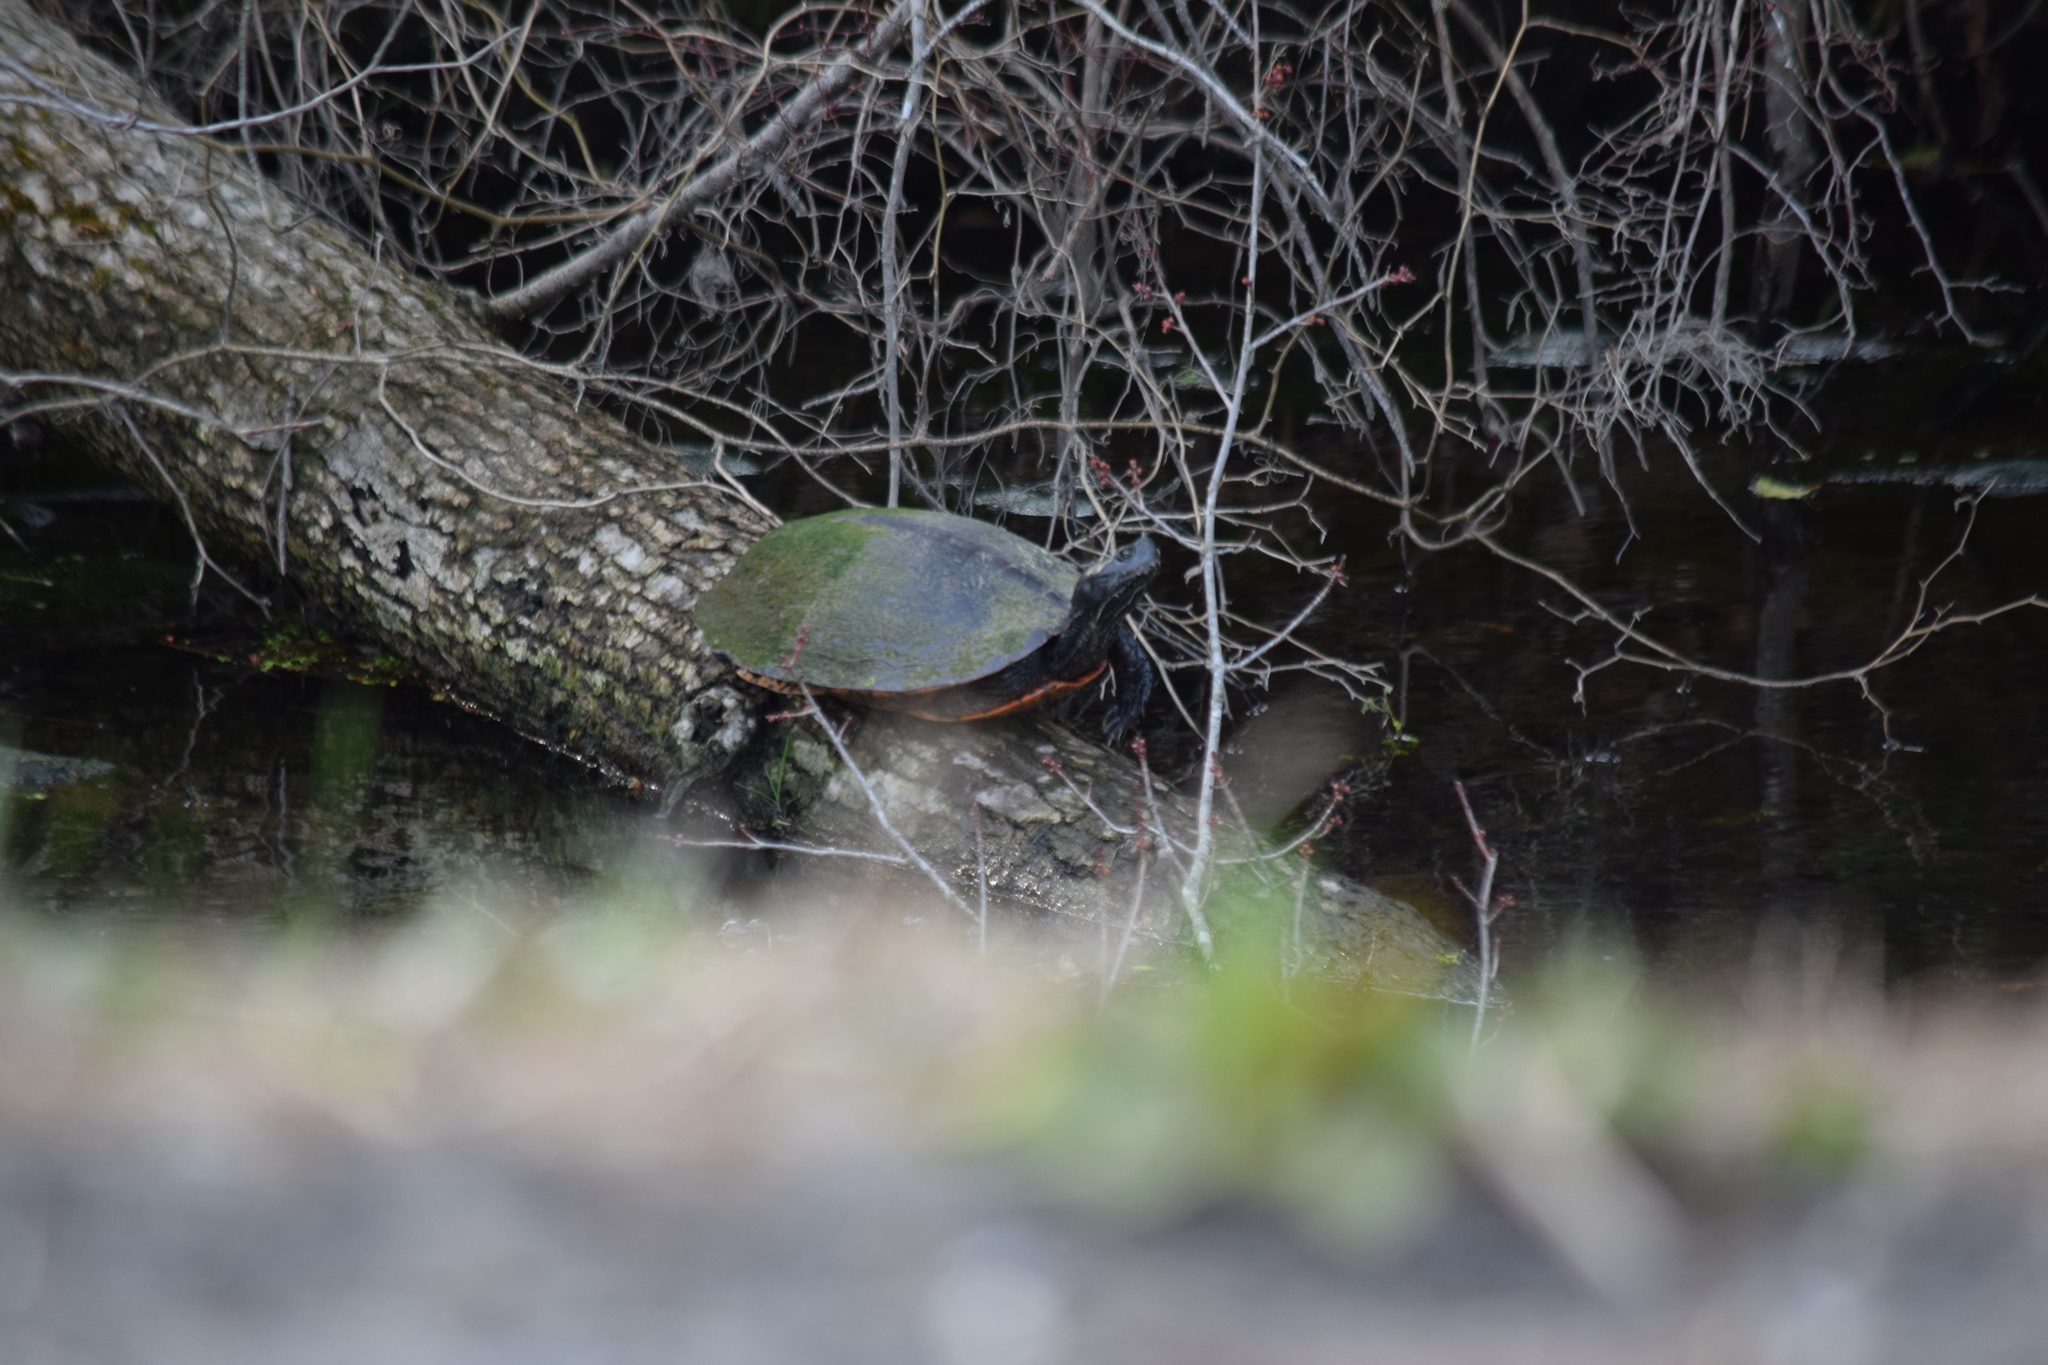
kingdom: Animalia
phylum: Chordata
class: Testudines
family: Emydidae
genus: Pseudemys
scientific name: Pseudemys rubriventris
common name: American red-bellied turtle
